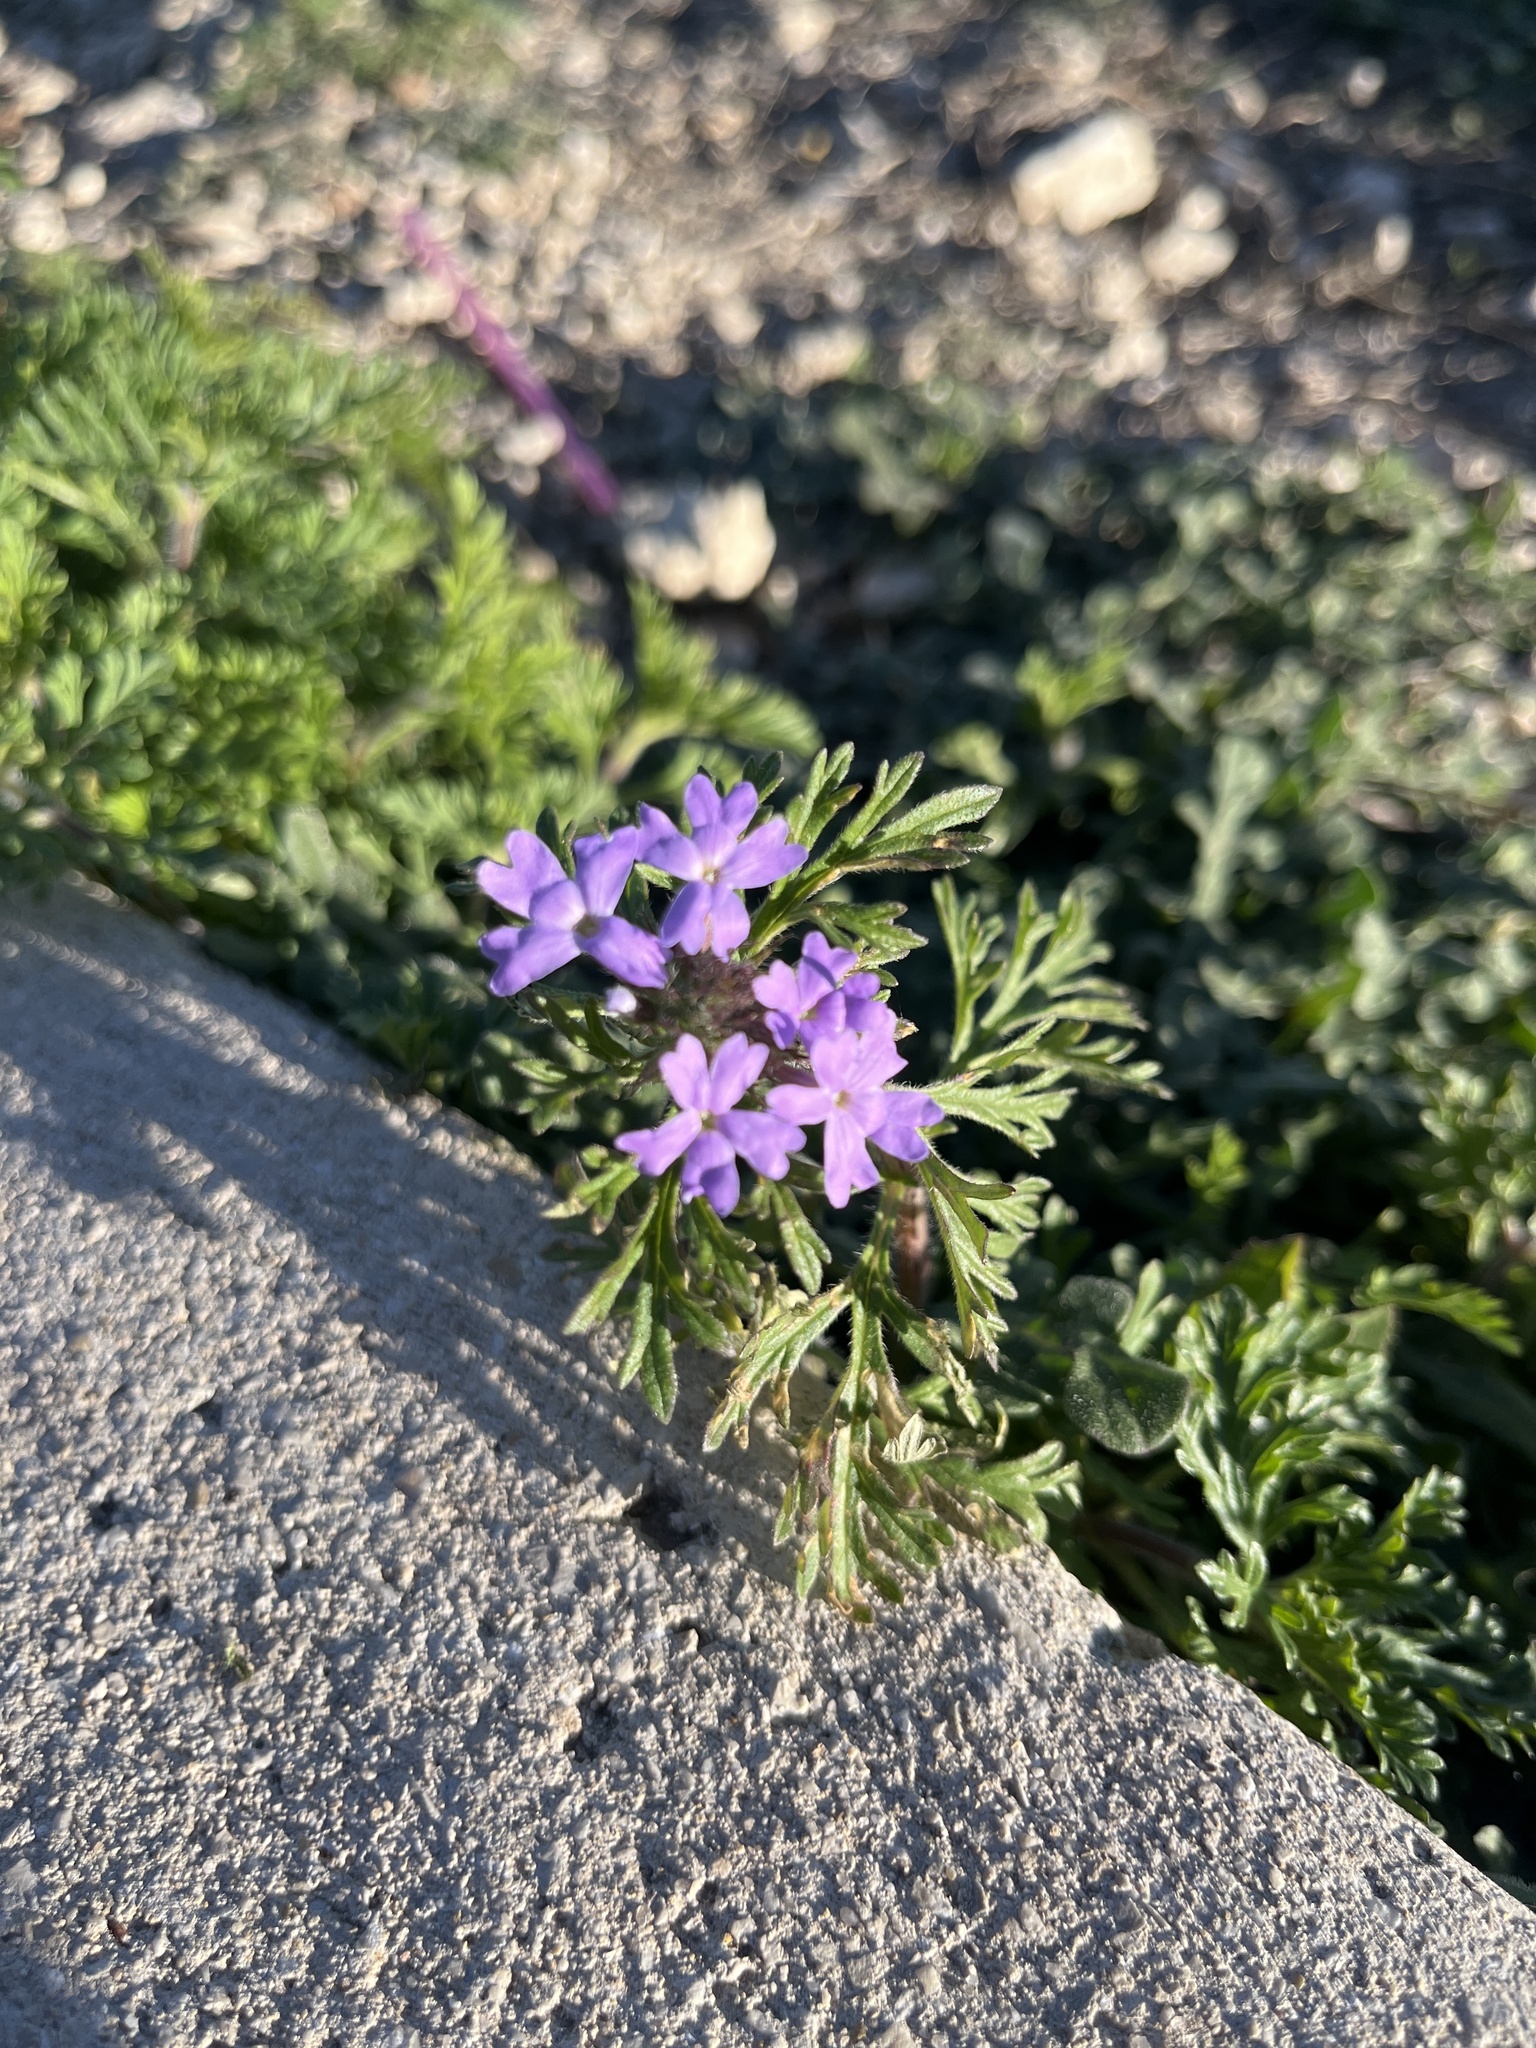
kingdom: Plantae
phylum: Tracheophyta
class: Magnoliopsida
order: Lamiales
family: Verbenaceae
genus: Verbena
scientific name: Verbena bipinnatifida
